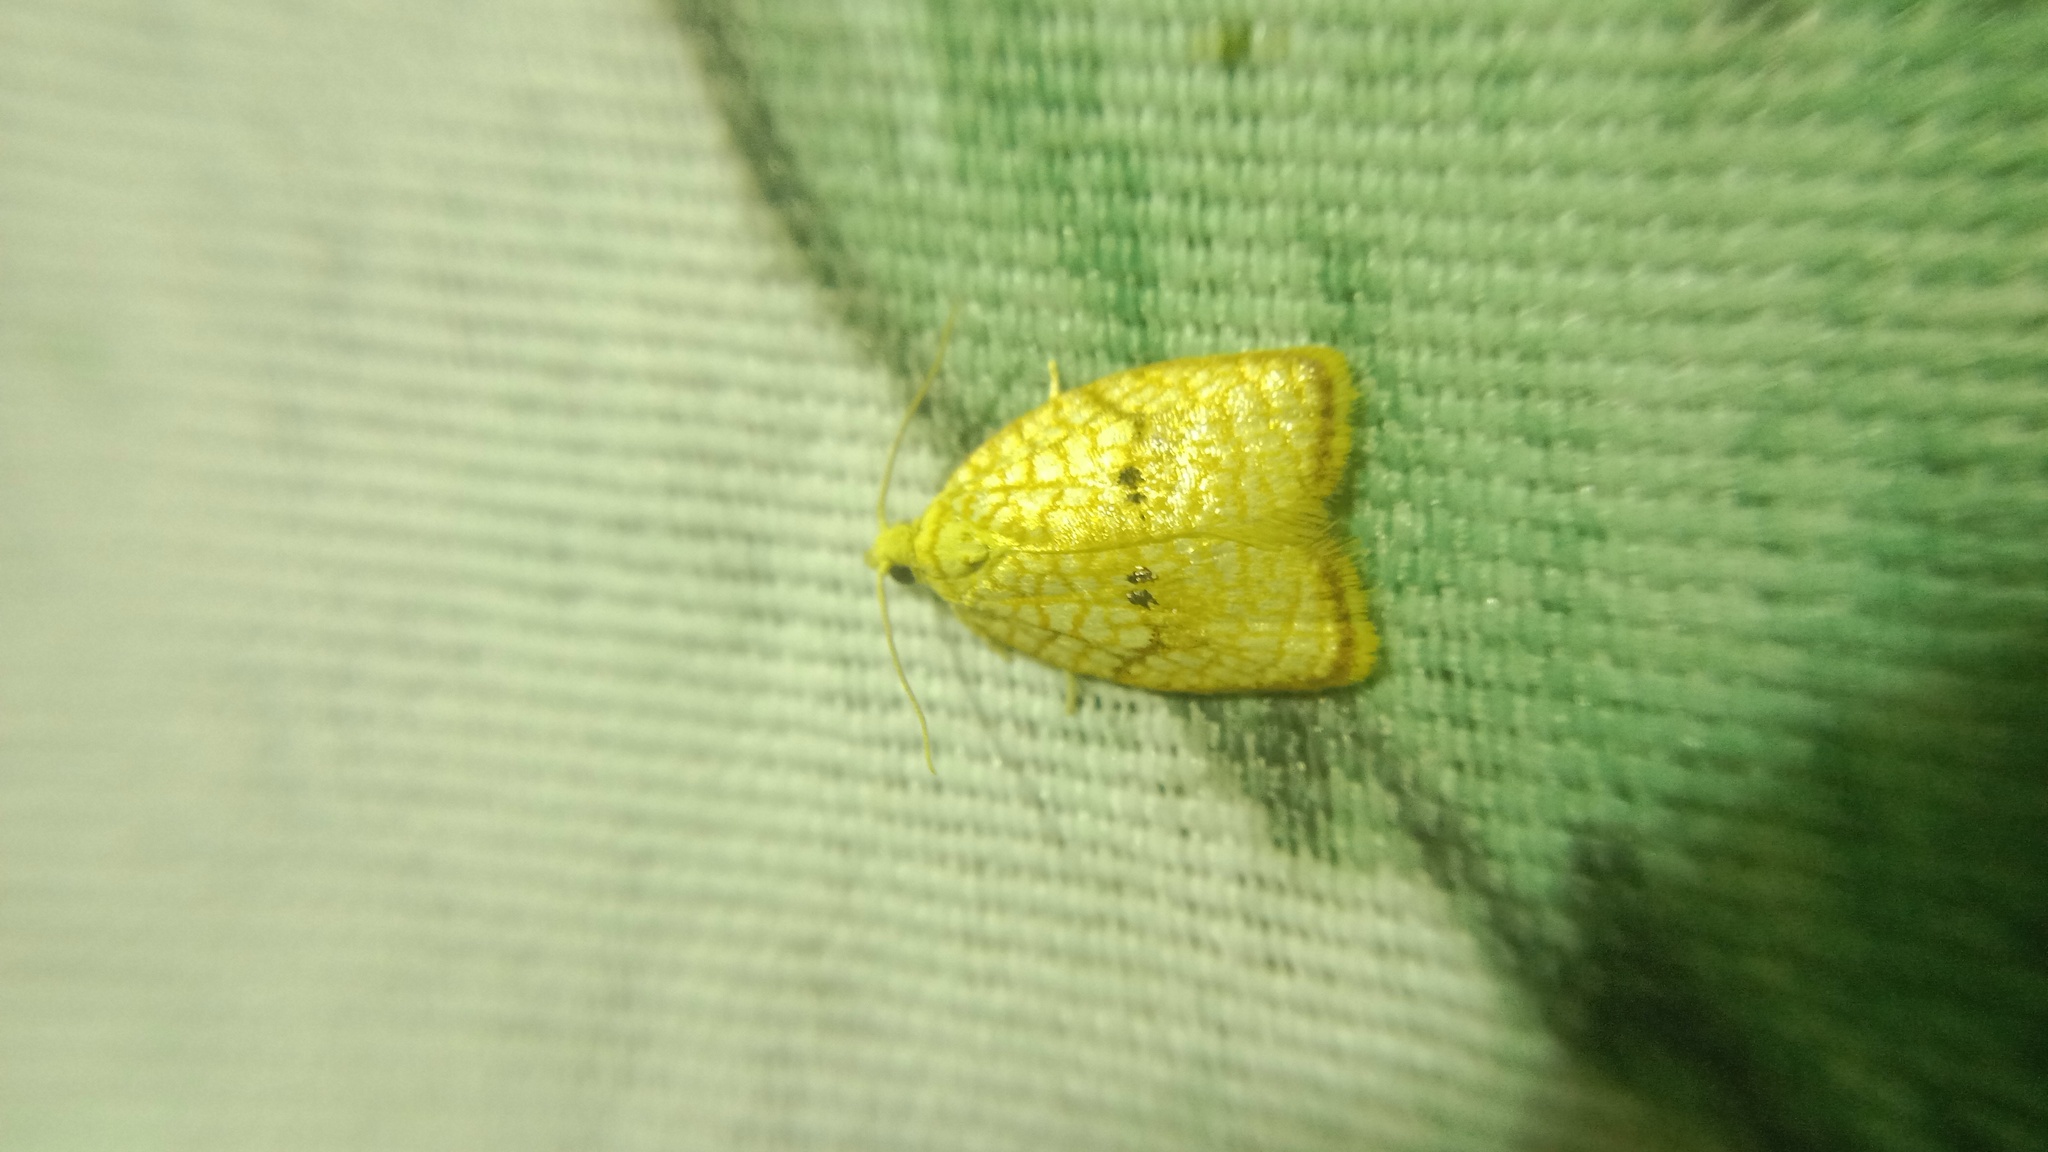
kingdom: Animalia
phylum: Arthropoda
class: Insecta
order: Lepidoptera
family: Tortricidae
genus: Acleris
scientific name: Acleris forsskaleana
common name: Maple button
